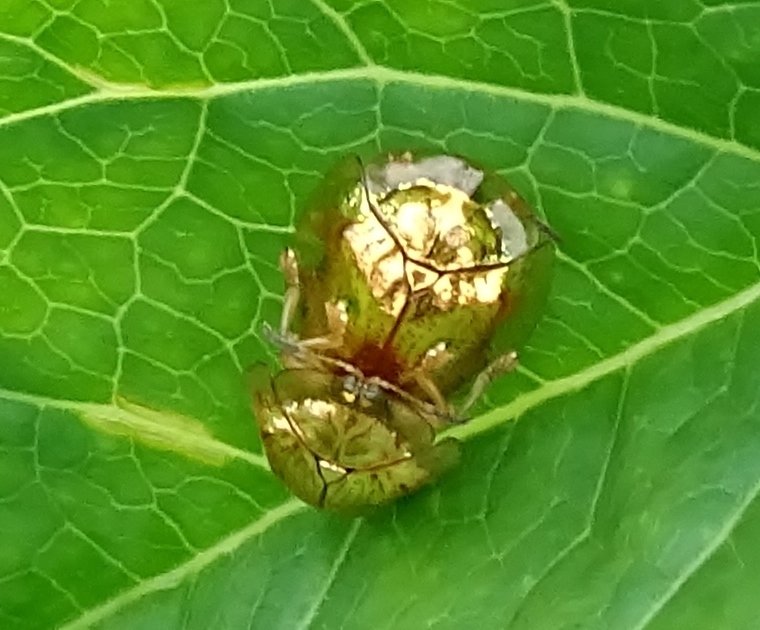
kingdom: Animalia
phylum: Arthropoda
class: Insecta
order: Coleoptera
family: Chrysomelidae
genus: Charidotella
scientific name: Charidotella sexpunctata
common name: Golden tortoise beetle
